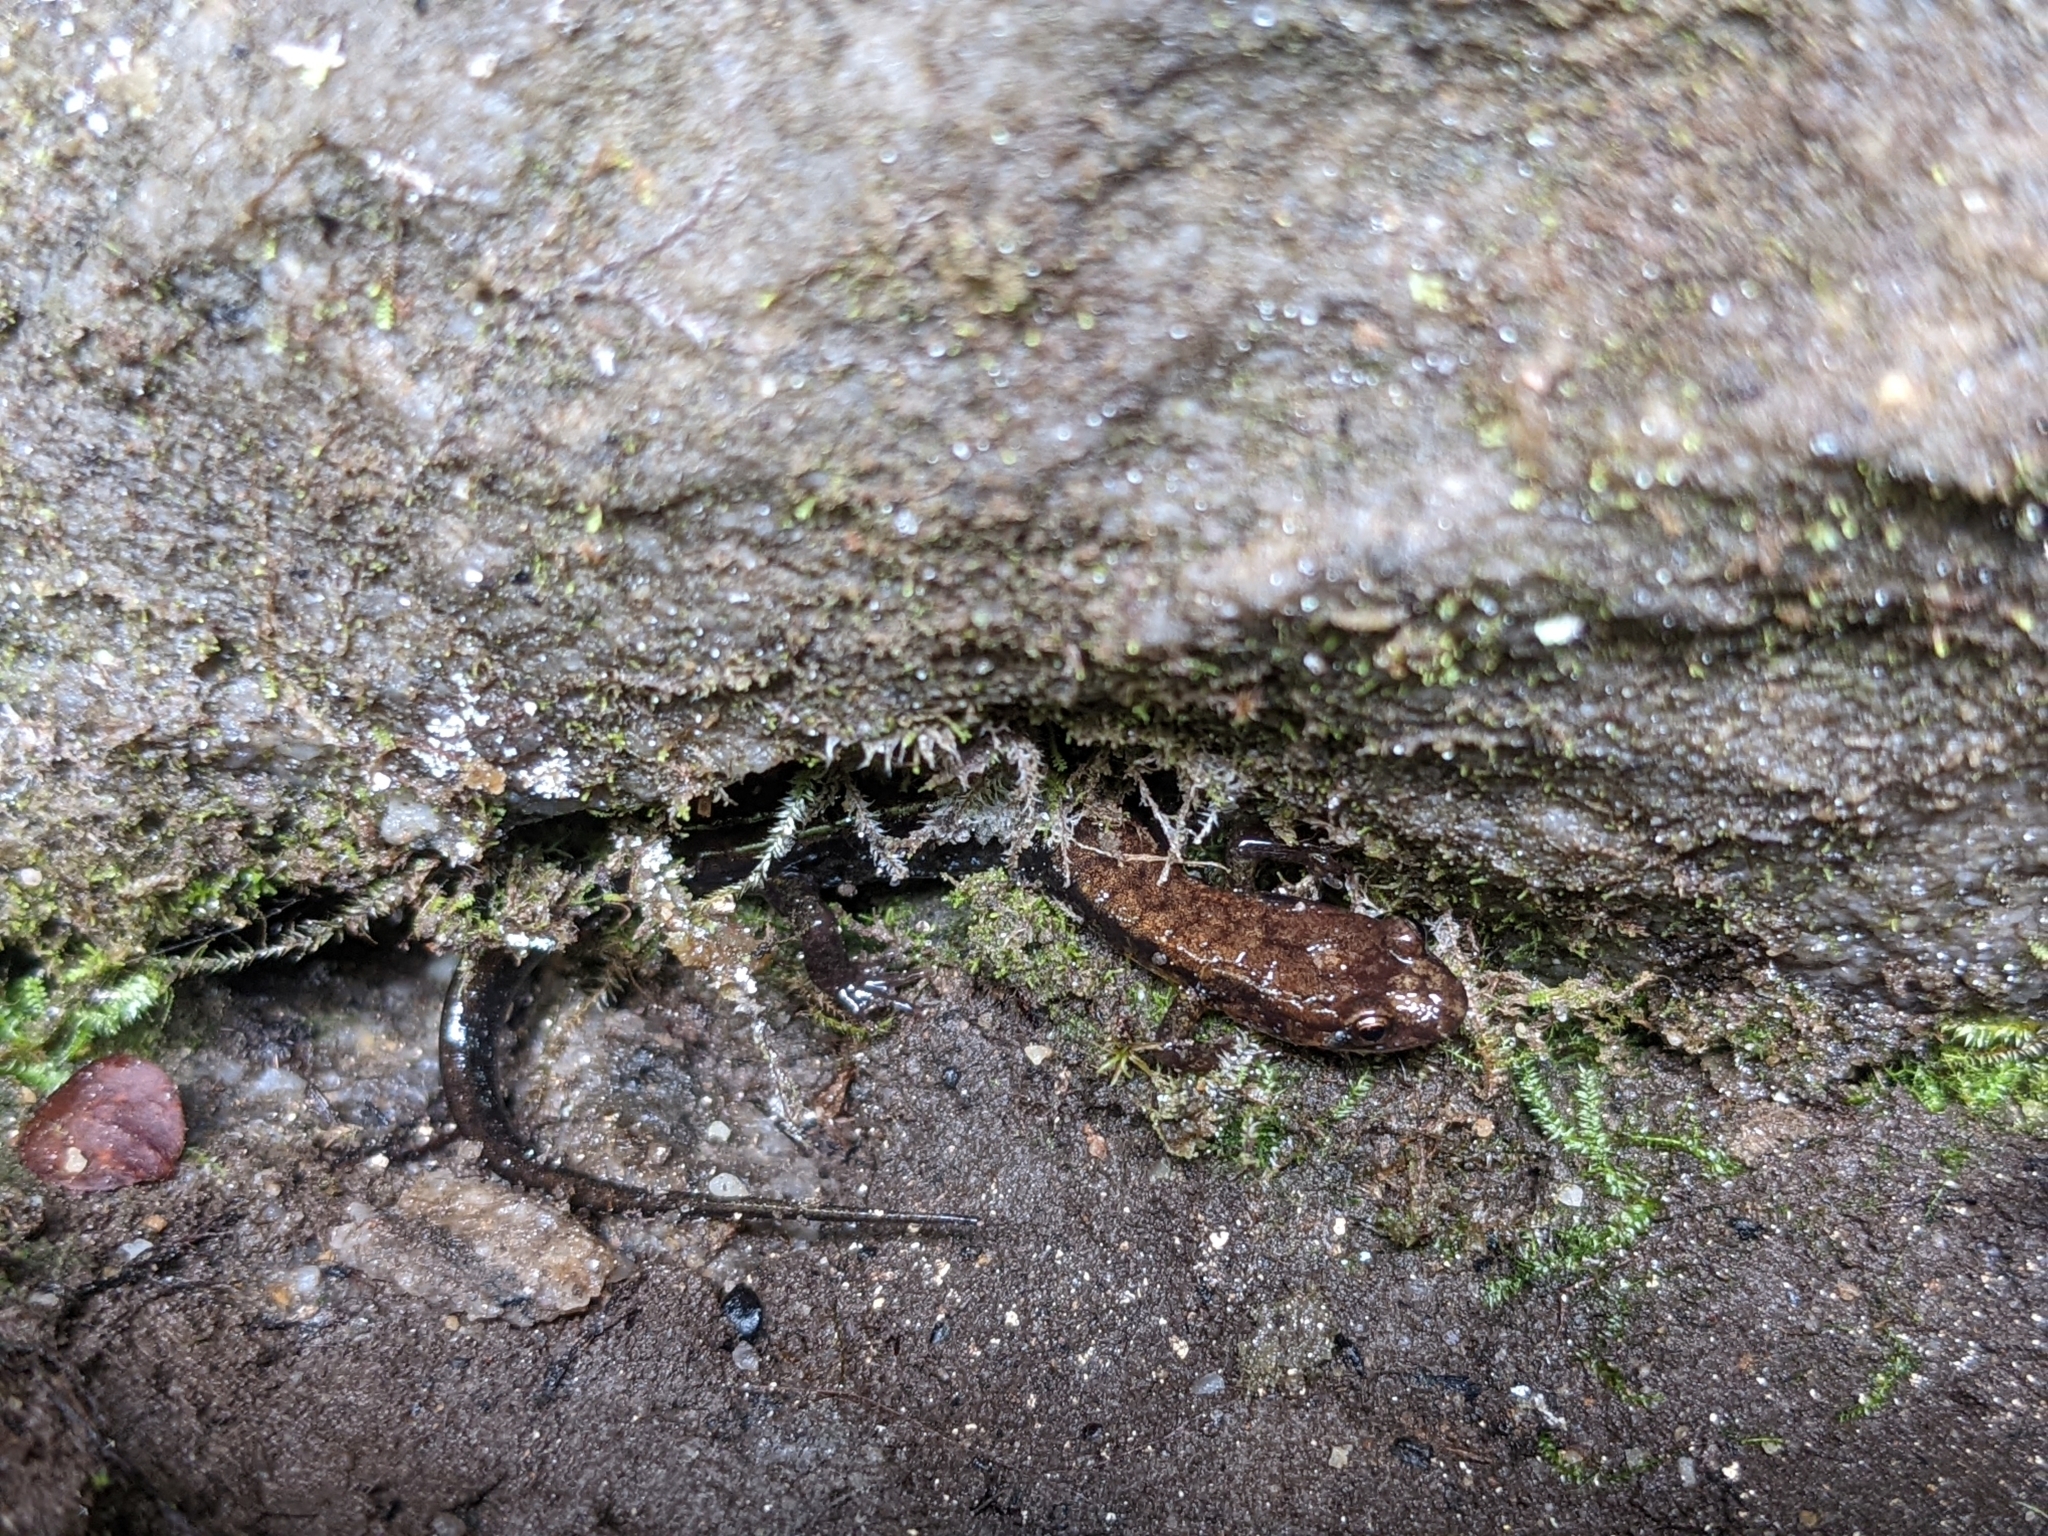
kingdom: Animalia
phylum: Chordata
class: Amphibia
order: Caudata
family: Plethodontidae
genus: Desmognathus
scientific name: Desmognathus ochrophaeus
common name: Allegheny mountain dusky salamander
